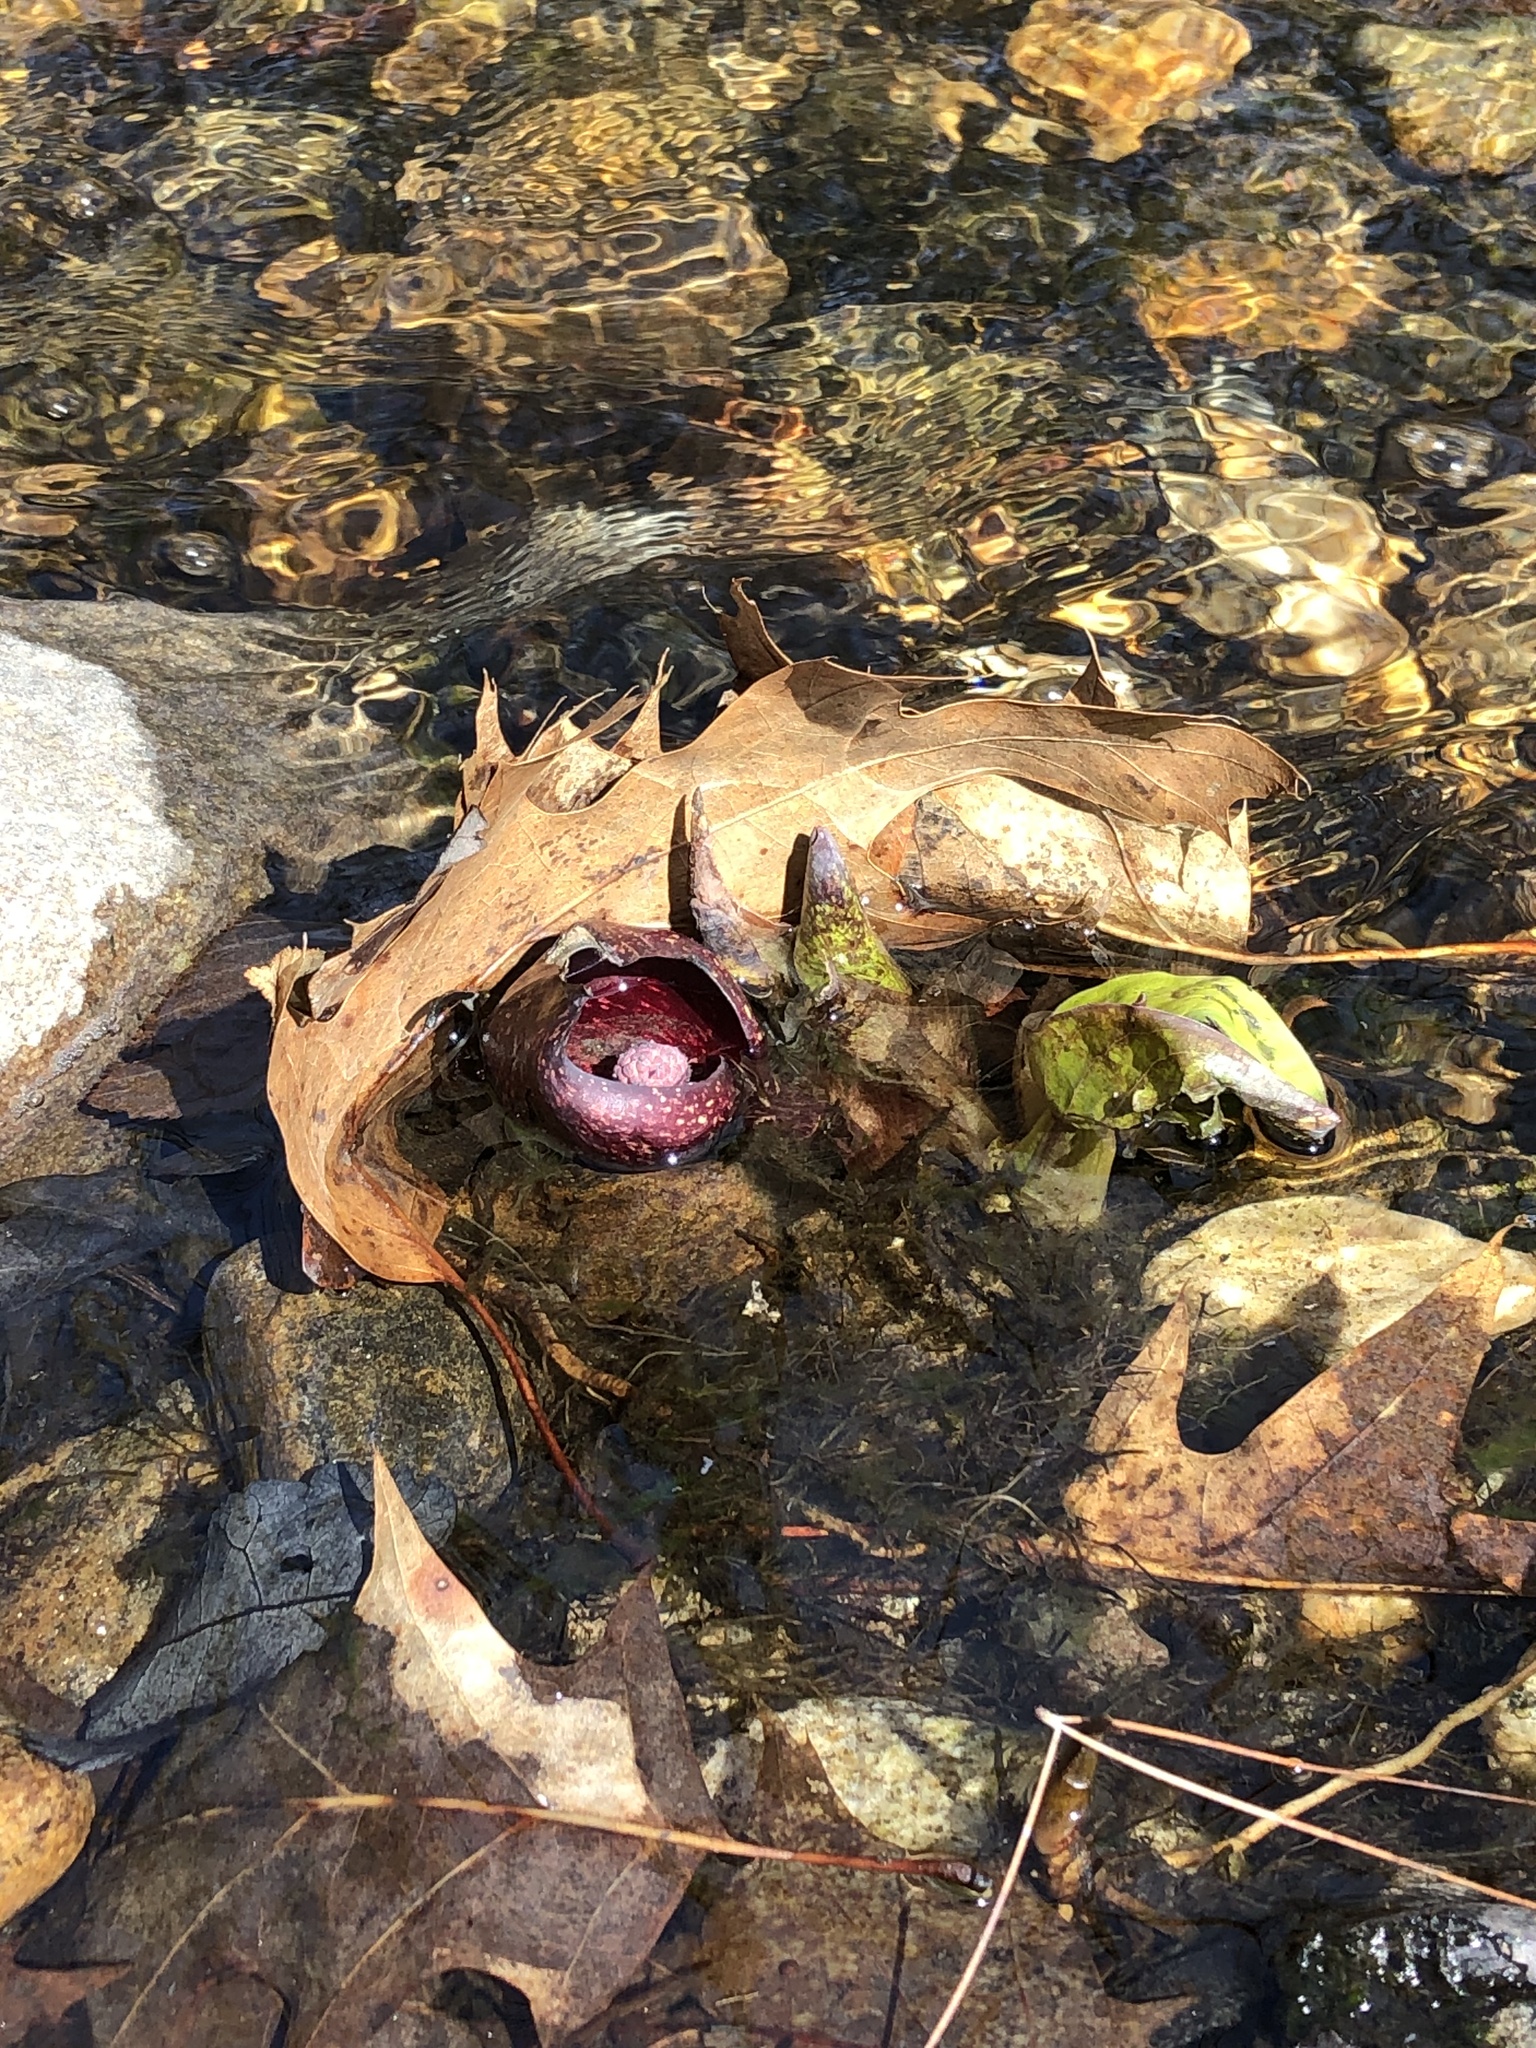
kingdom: Plantae
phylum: Tracheophyta
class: Liliopsida
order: Alismatales
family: Araceae
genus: Symplocarpus
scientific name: Symplocarpus foetidus
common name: Eastern skunk cabbage
